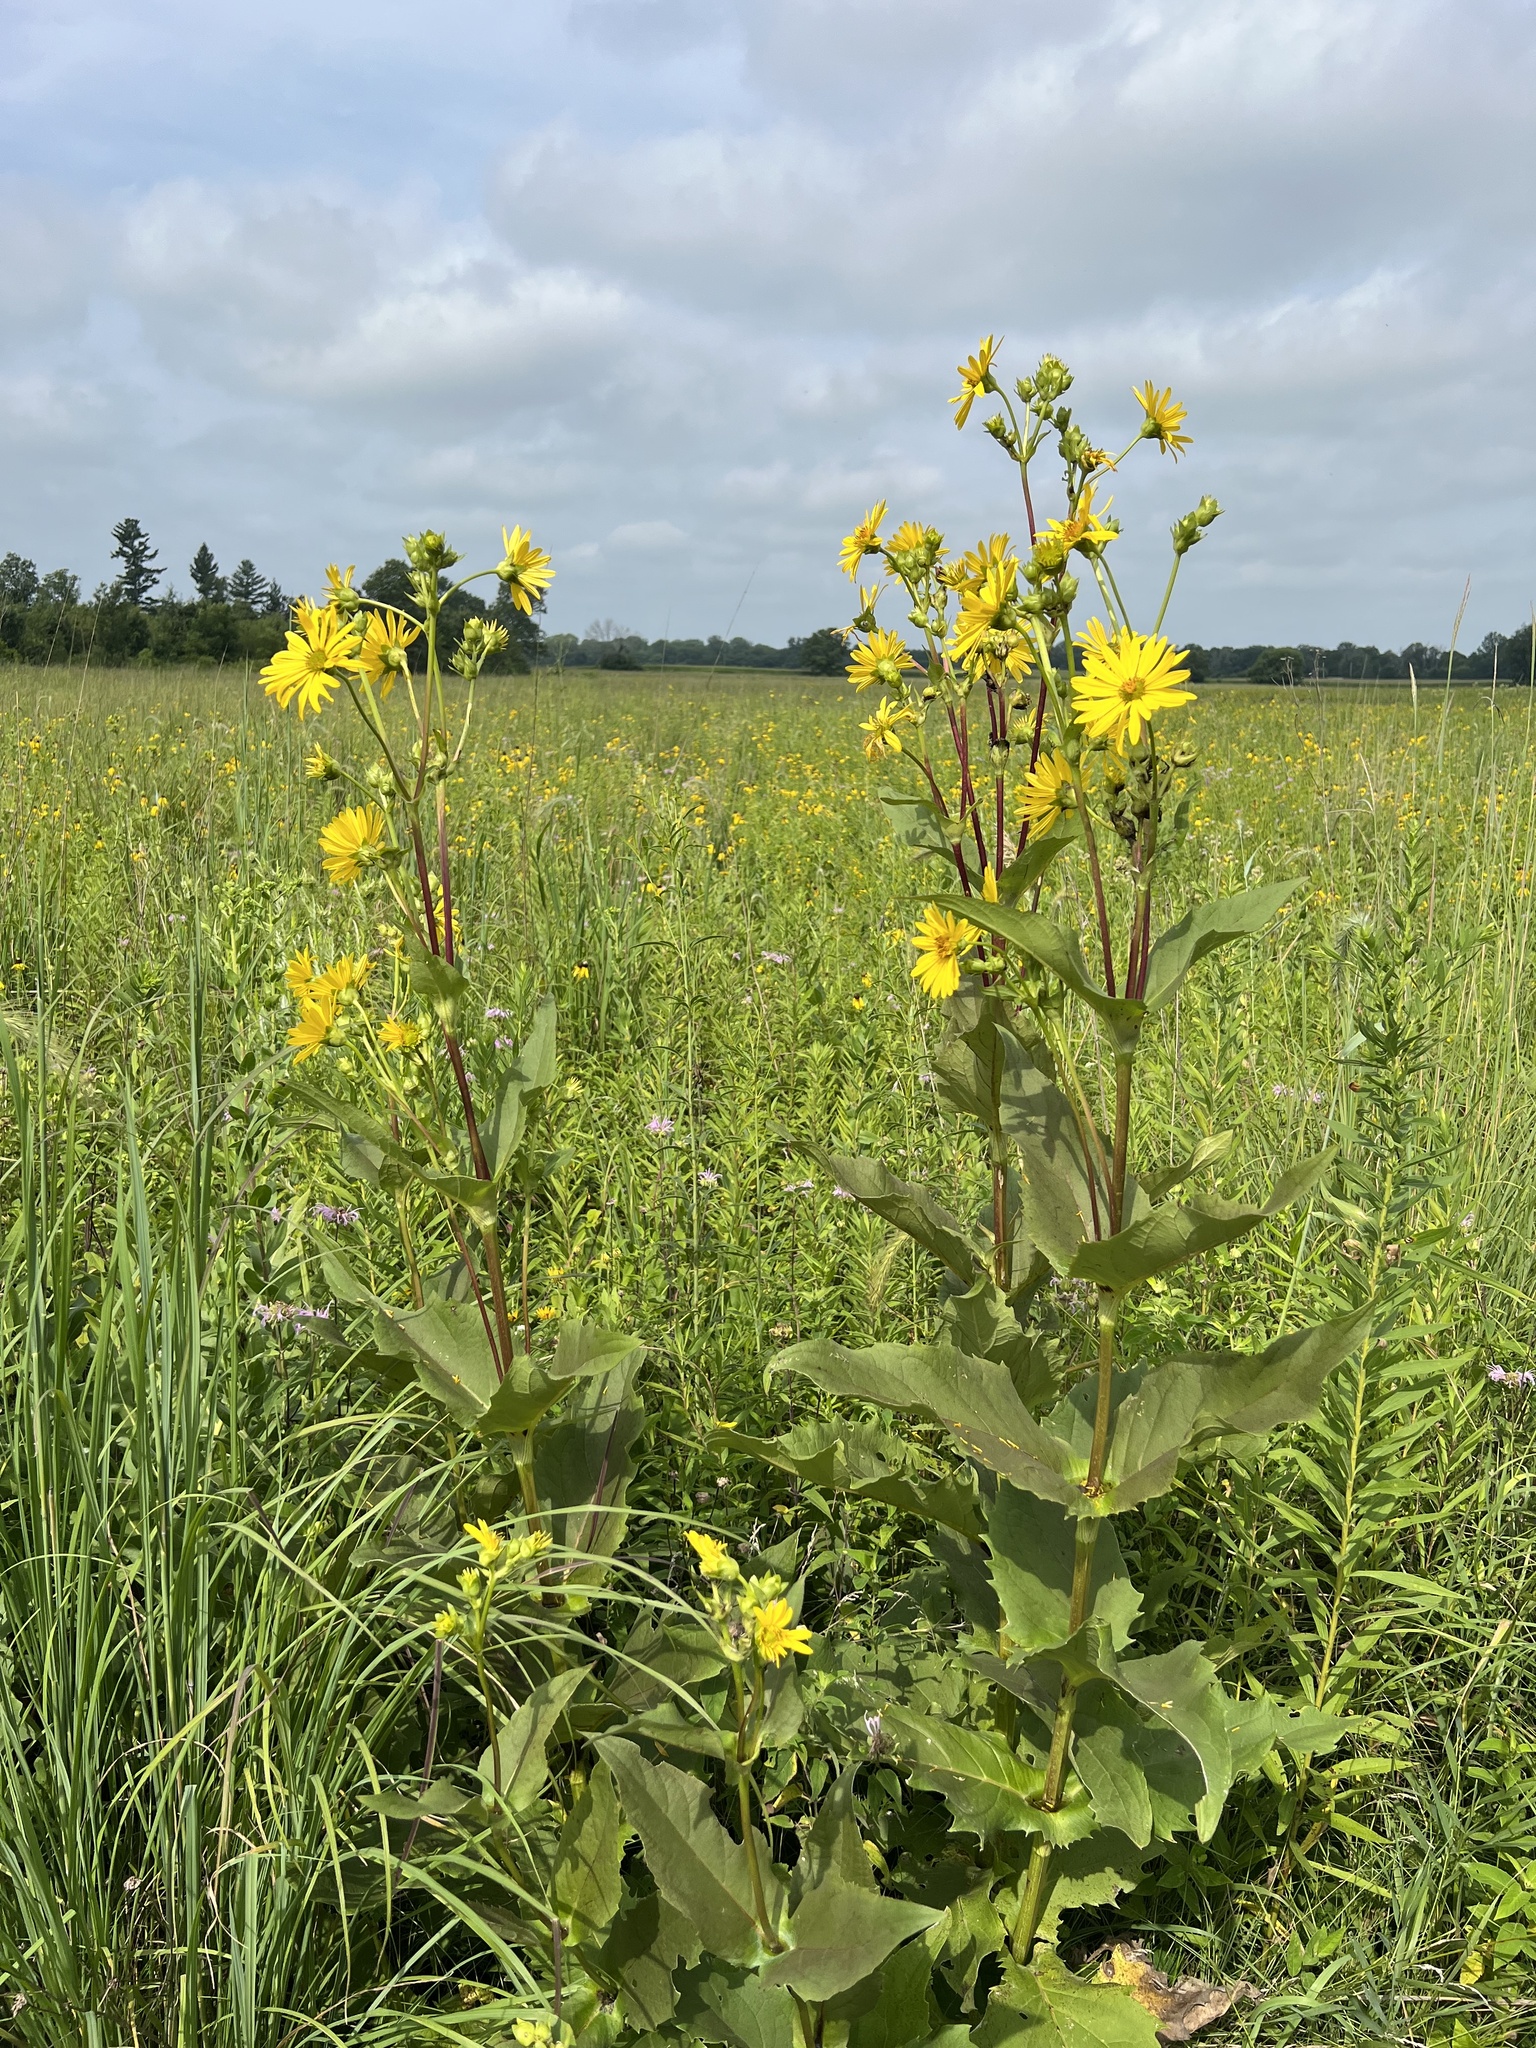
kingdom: Plantae
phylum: Tracheophyta
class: Magnoliopsida
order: Asterales
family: Asteraceae
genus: Silphium
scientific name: Silphium perfoliatum
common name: Cup-plant
